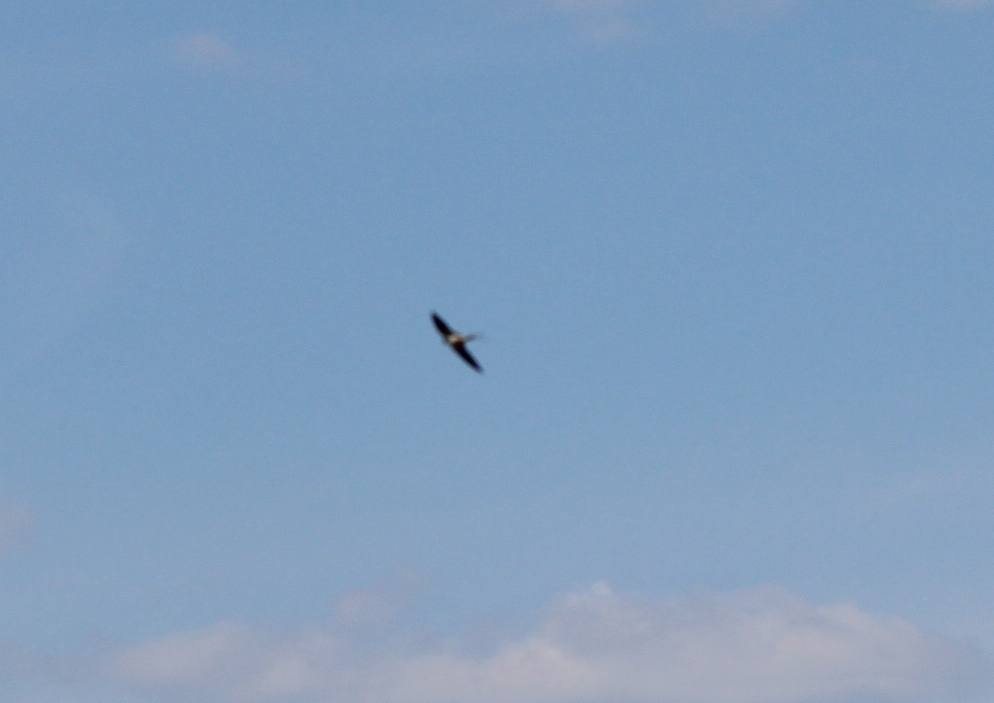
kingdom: Animalia
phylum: Chordata
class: Aves
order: Passeriformes
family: Hirundinidae
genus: Hirundo
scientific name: Hirundo rustica
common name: Barn swallow
